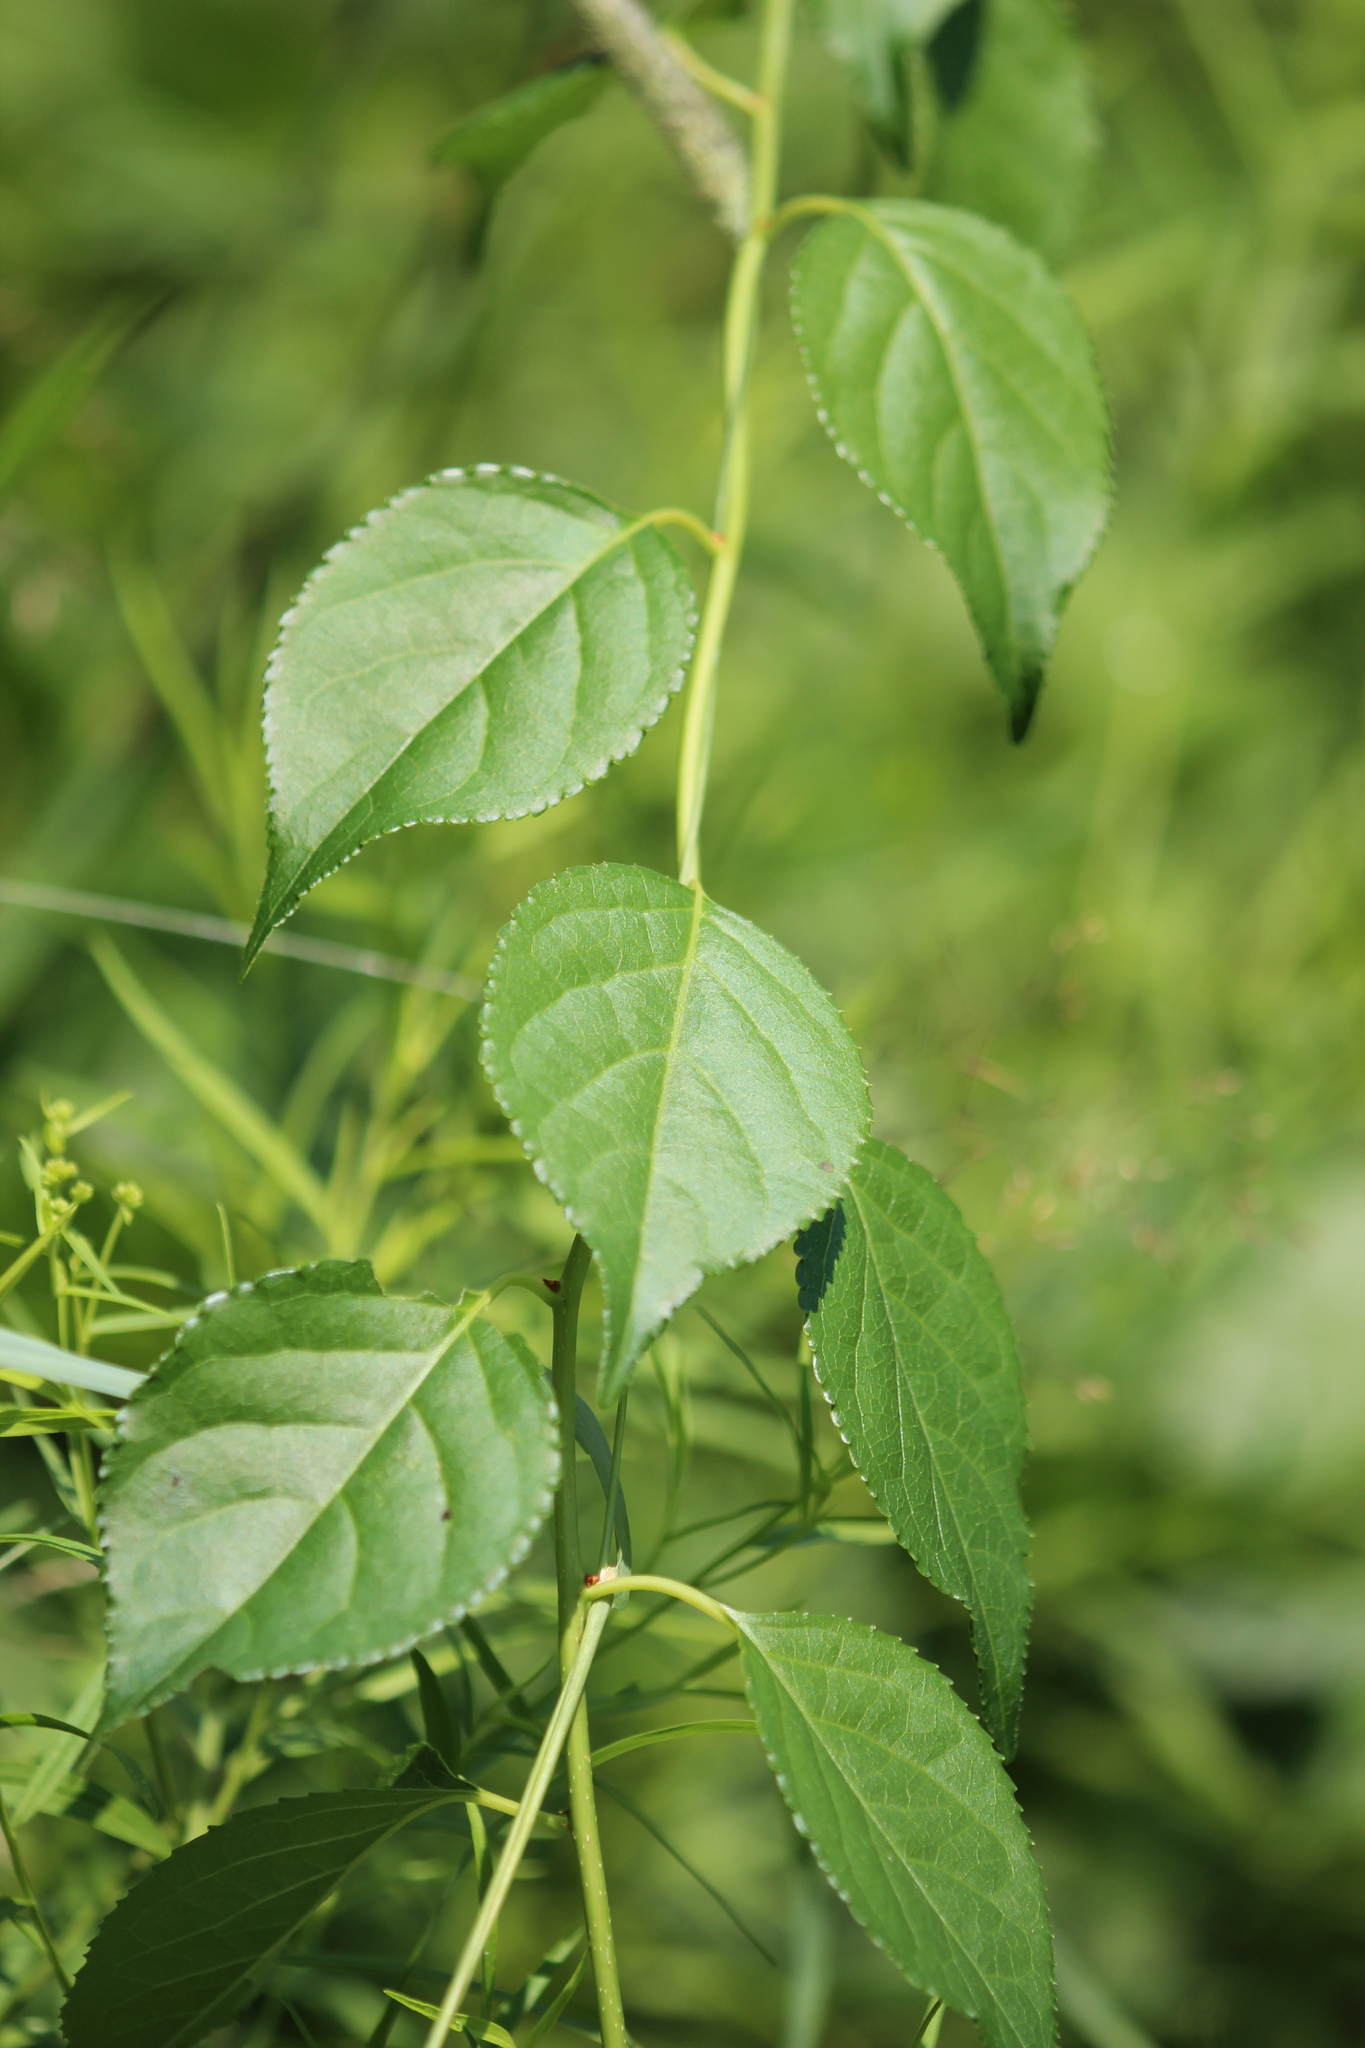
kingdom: Plantae
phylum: Tracheophyta
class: Magnoliopsida
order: Celastrales
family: Celastraceae
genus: Celastrus
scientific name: Celastrus orbiculatus
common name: Oriental bittersweet
